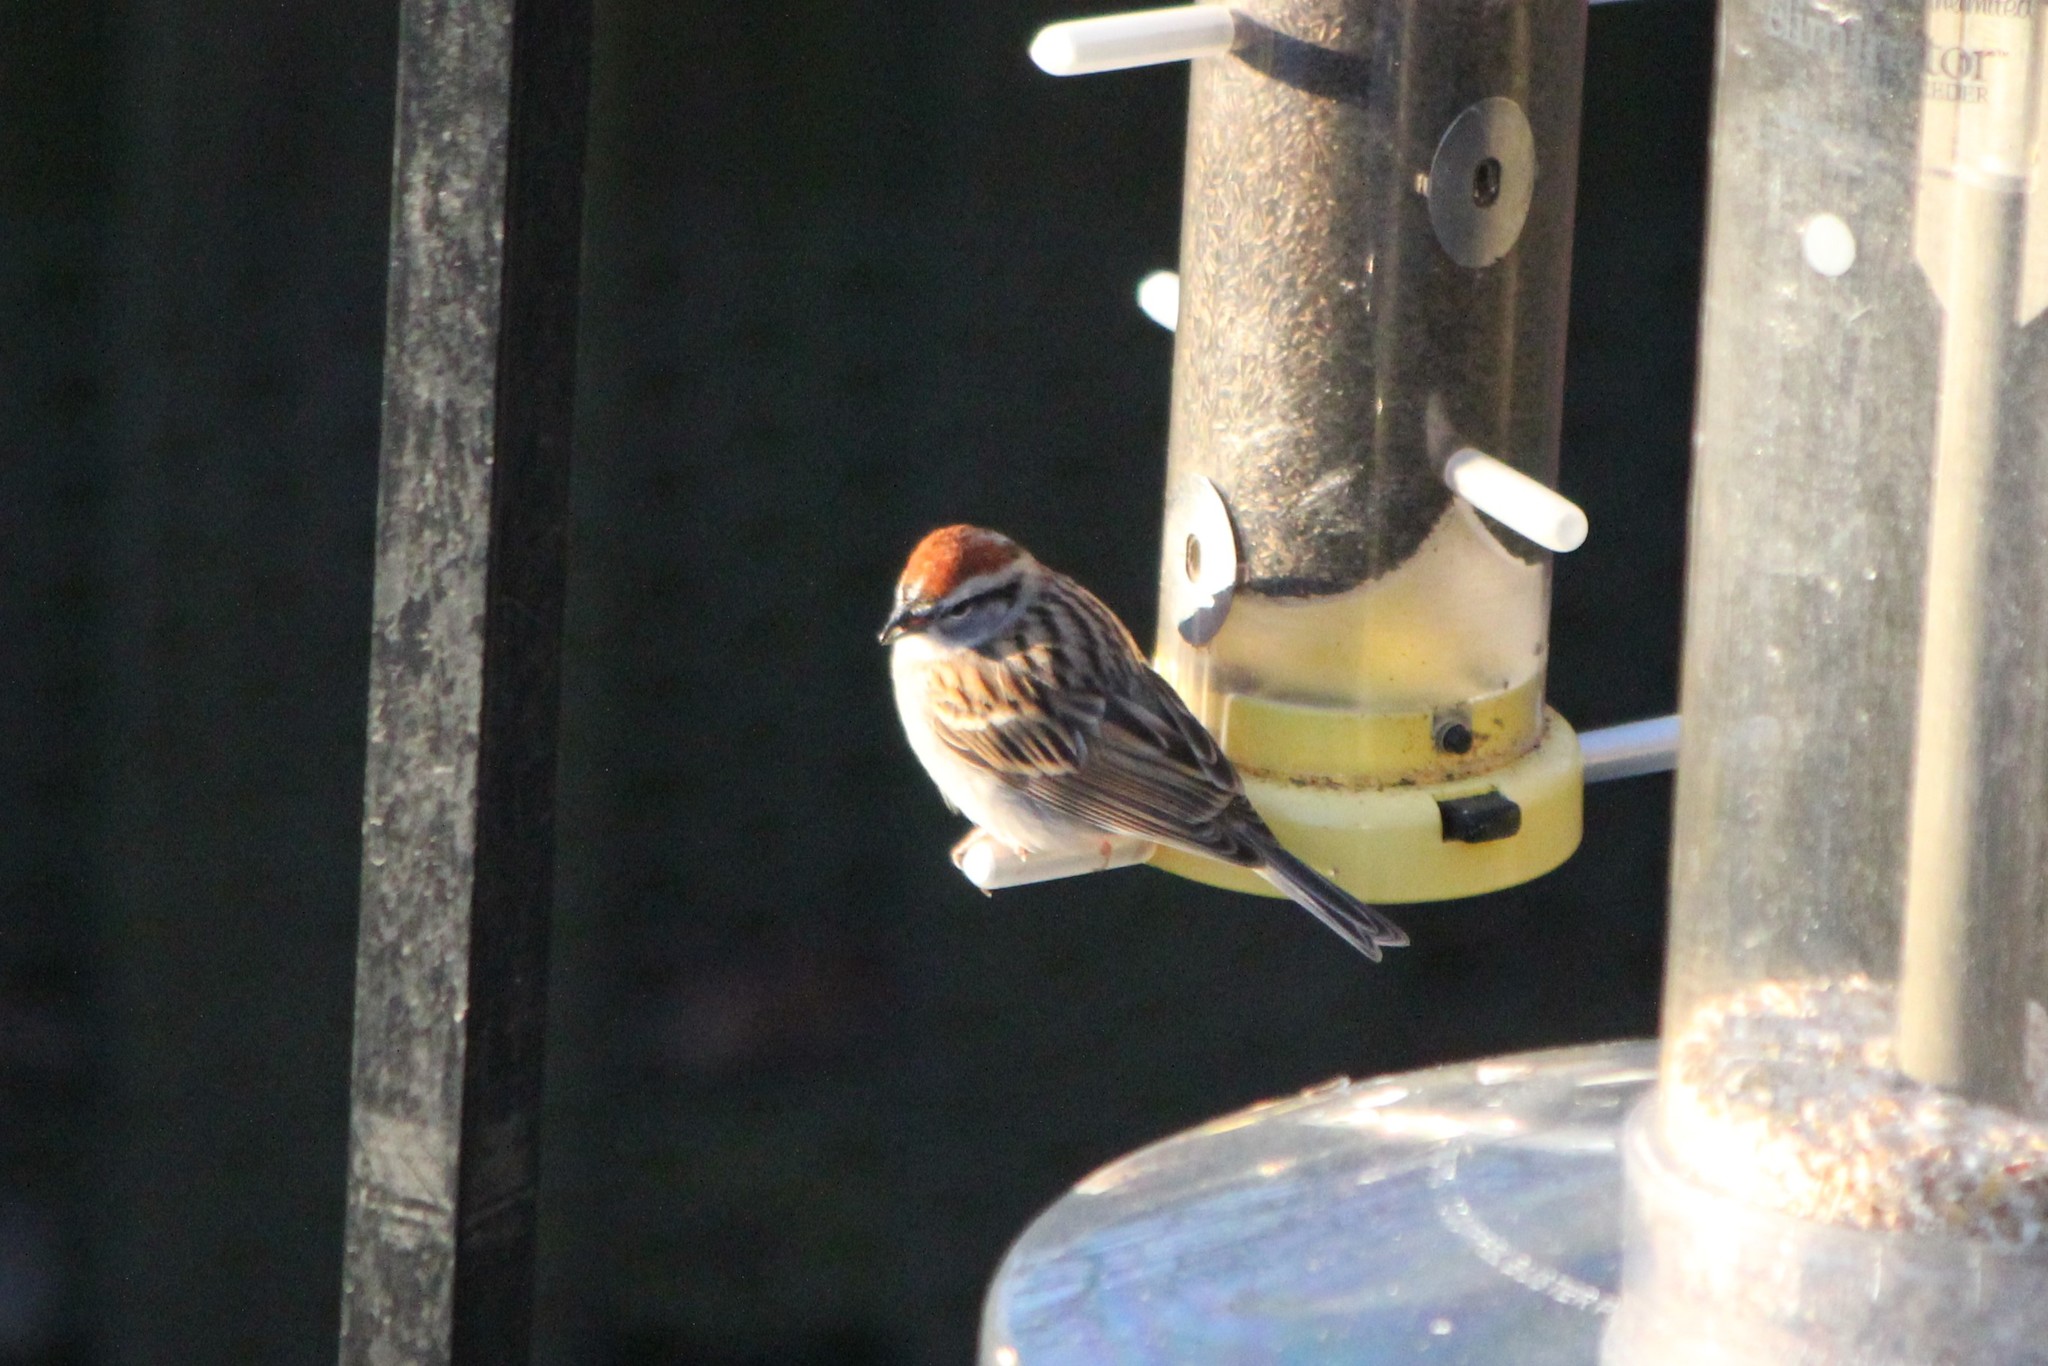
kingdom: Animalia
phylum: Chordata
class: Aves
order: Passeriformes
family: Passerellidae
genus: Spizella
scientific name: Spizella passerina
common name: Chipping sparrow
